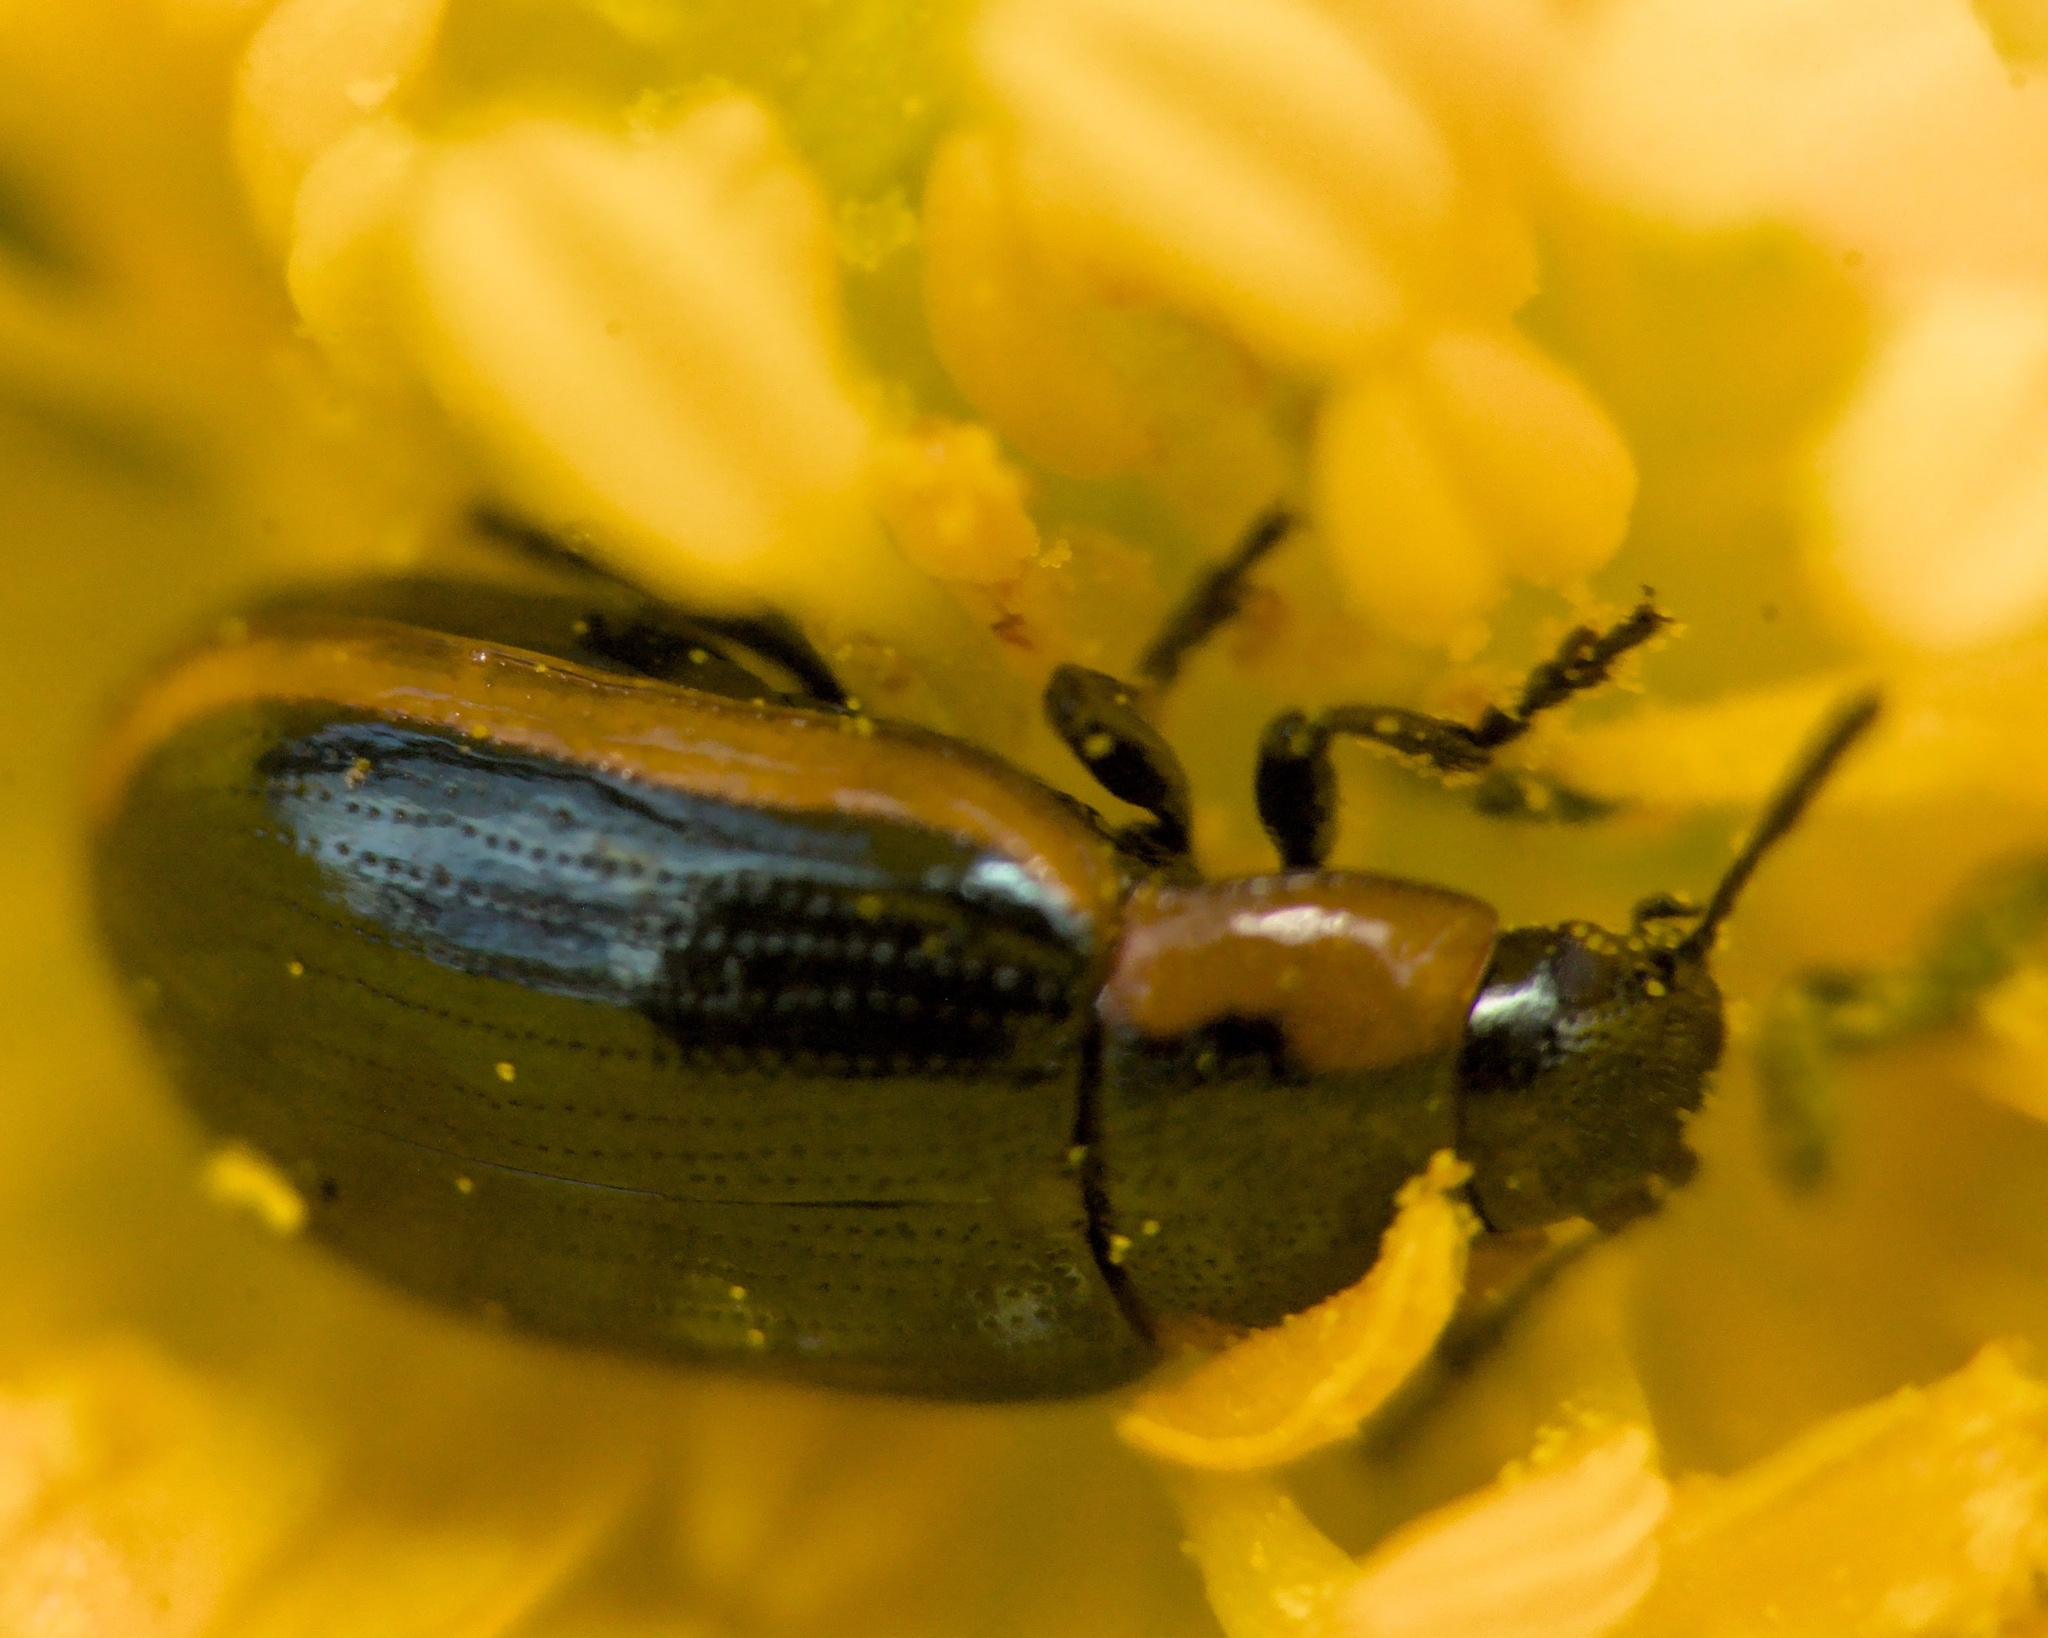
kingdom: Animalia
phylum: Arthropoda
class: Insecta
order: Coleoptera
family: Chrysomelidae
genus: Prasocuris
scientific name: Prasocuris marginella
